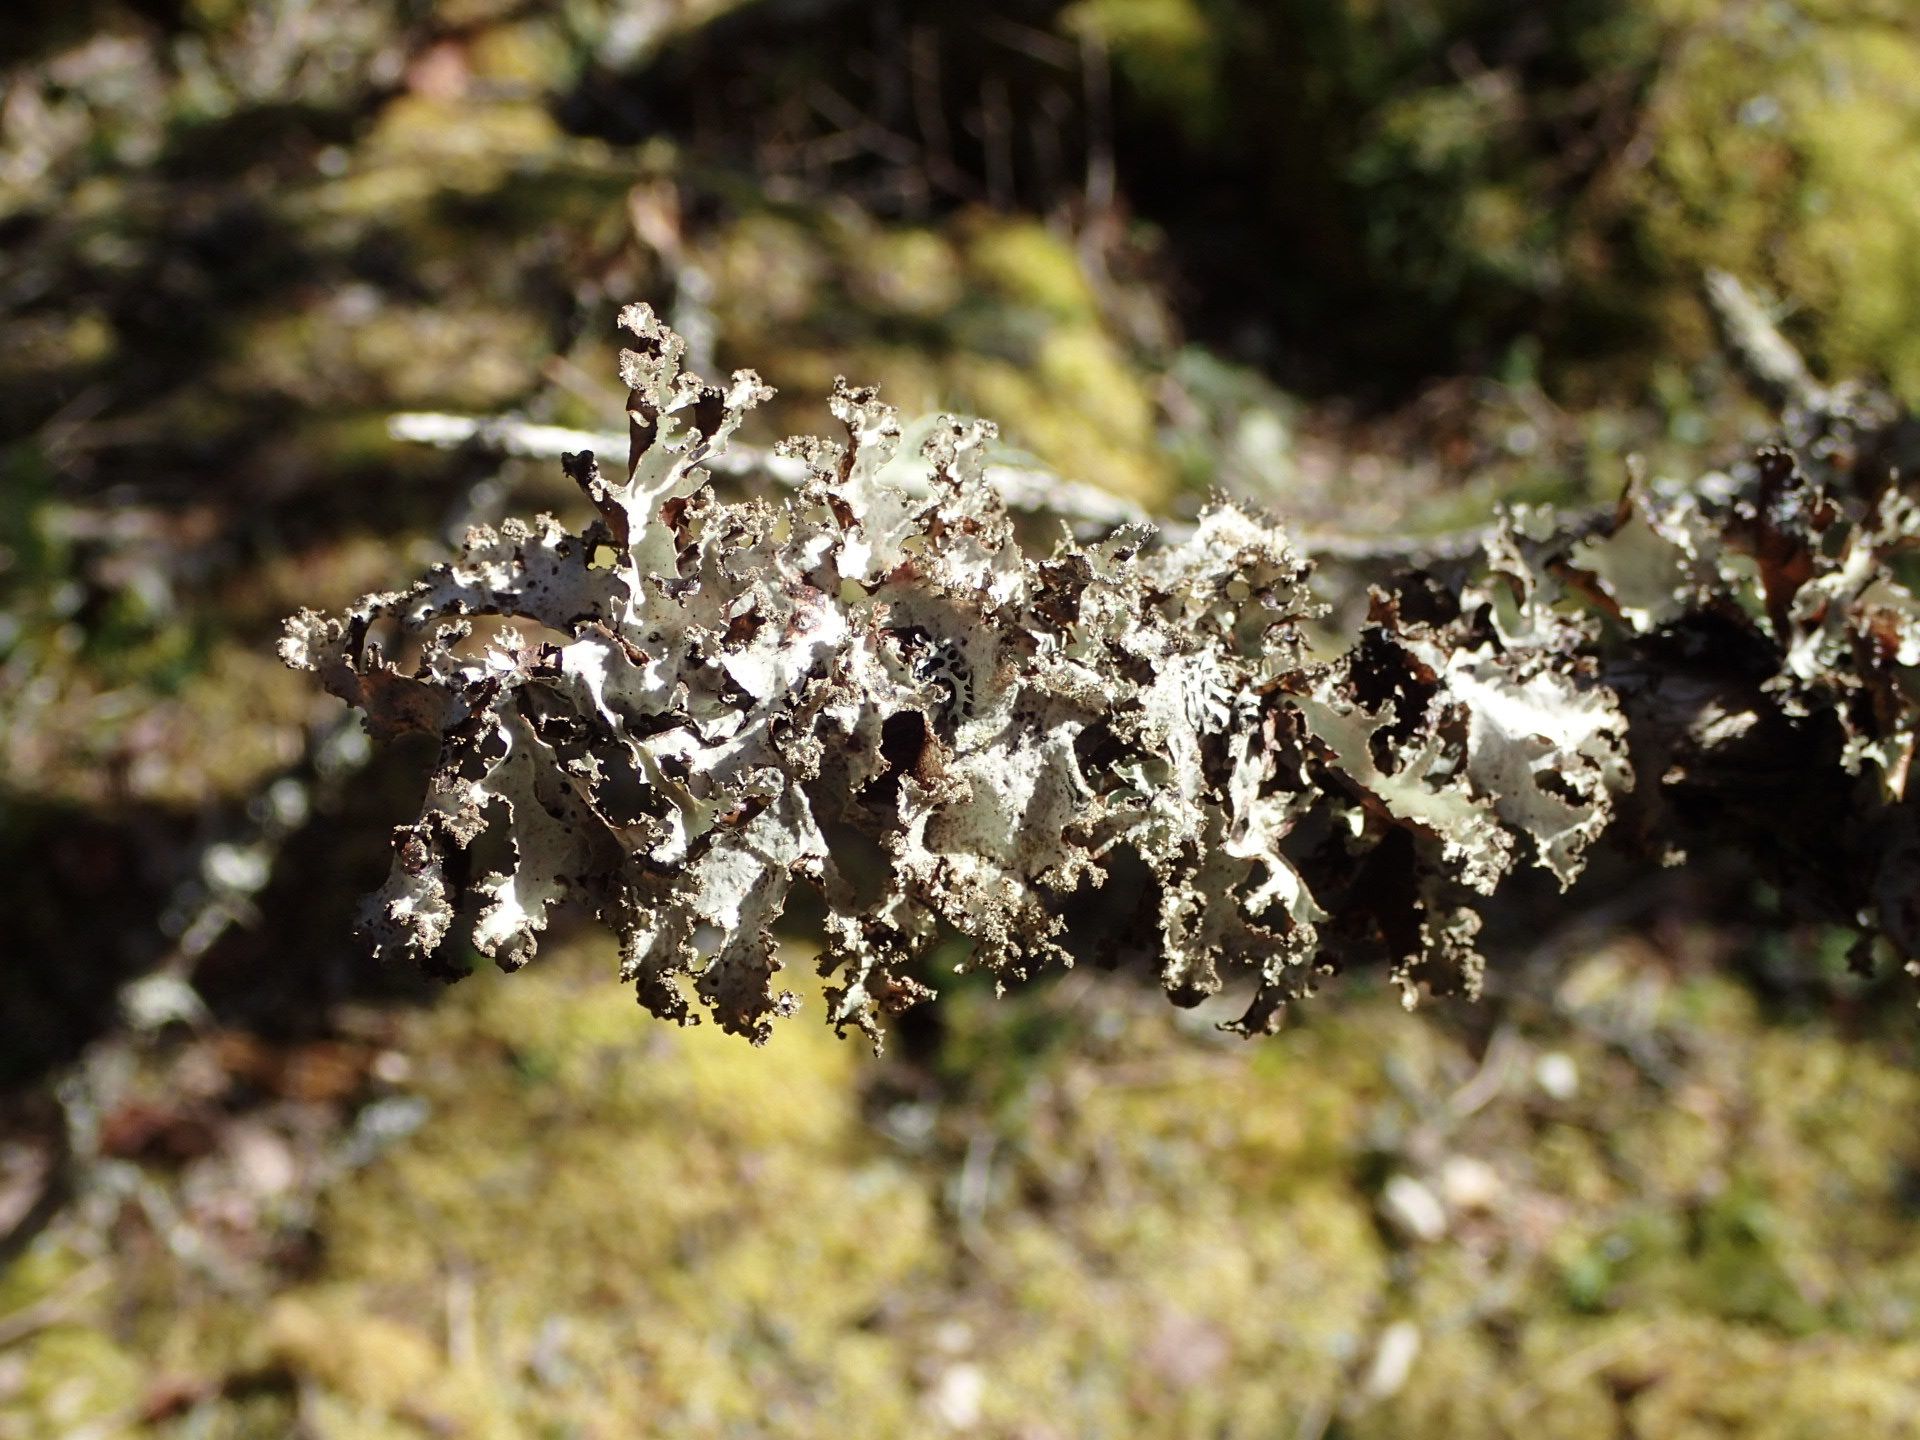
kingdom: Fungi
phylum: Ascomycota
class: Lecanoromycetes
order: Lecanorales
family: Parmeliaceae
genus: Platismatia
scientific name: Platismatia glauca
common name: Varied rag lichen
